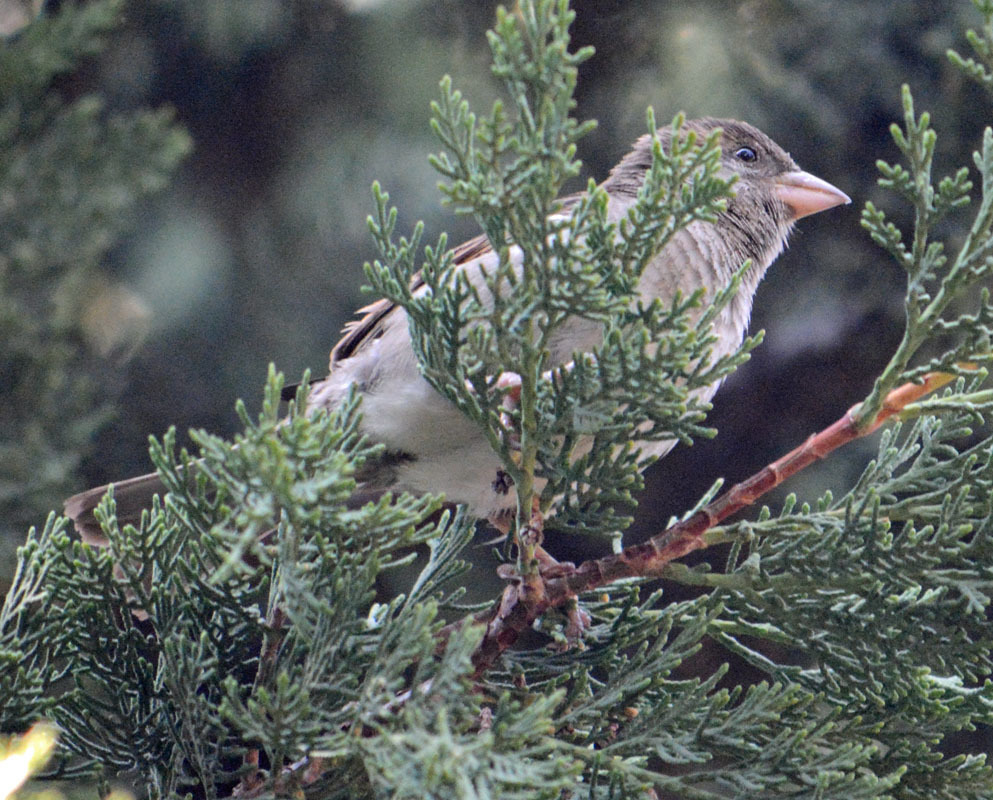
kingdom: Animalia
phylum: Chordata
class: Aves
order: Passeriformes
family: Passeridae
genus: Passer
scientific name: Passer domesticus
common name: House sparrow
